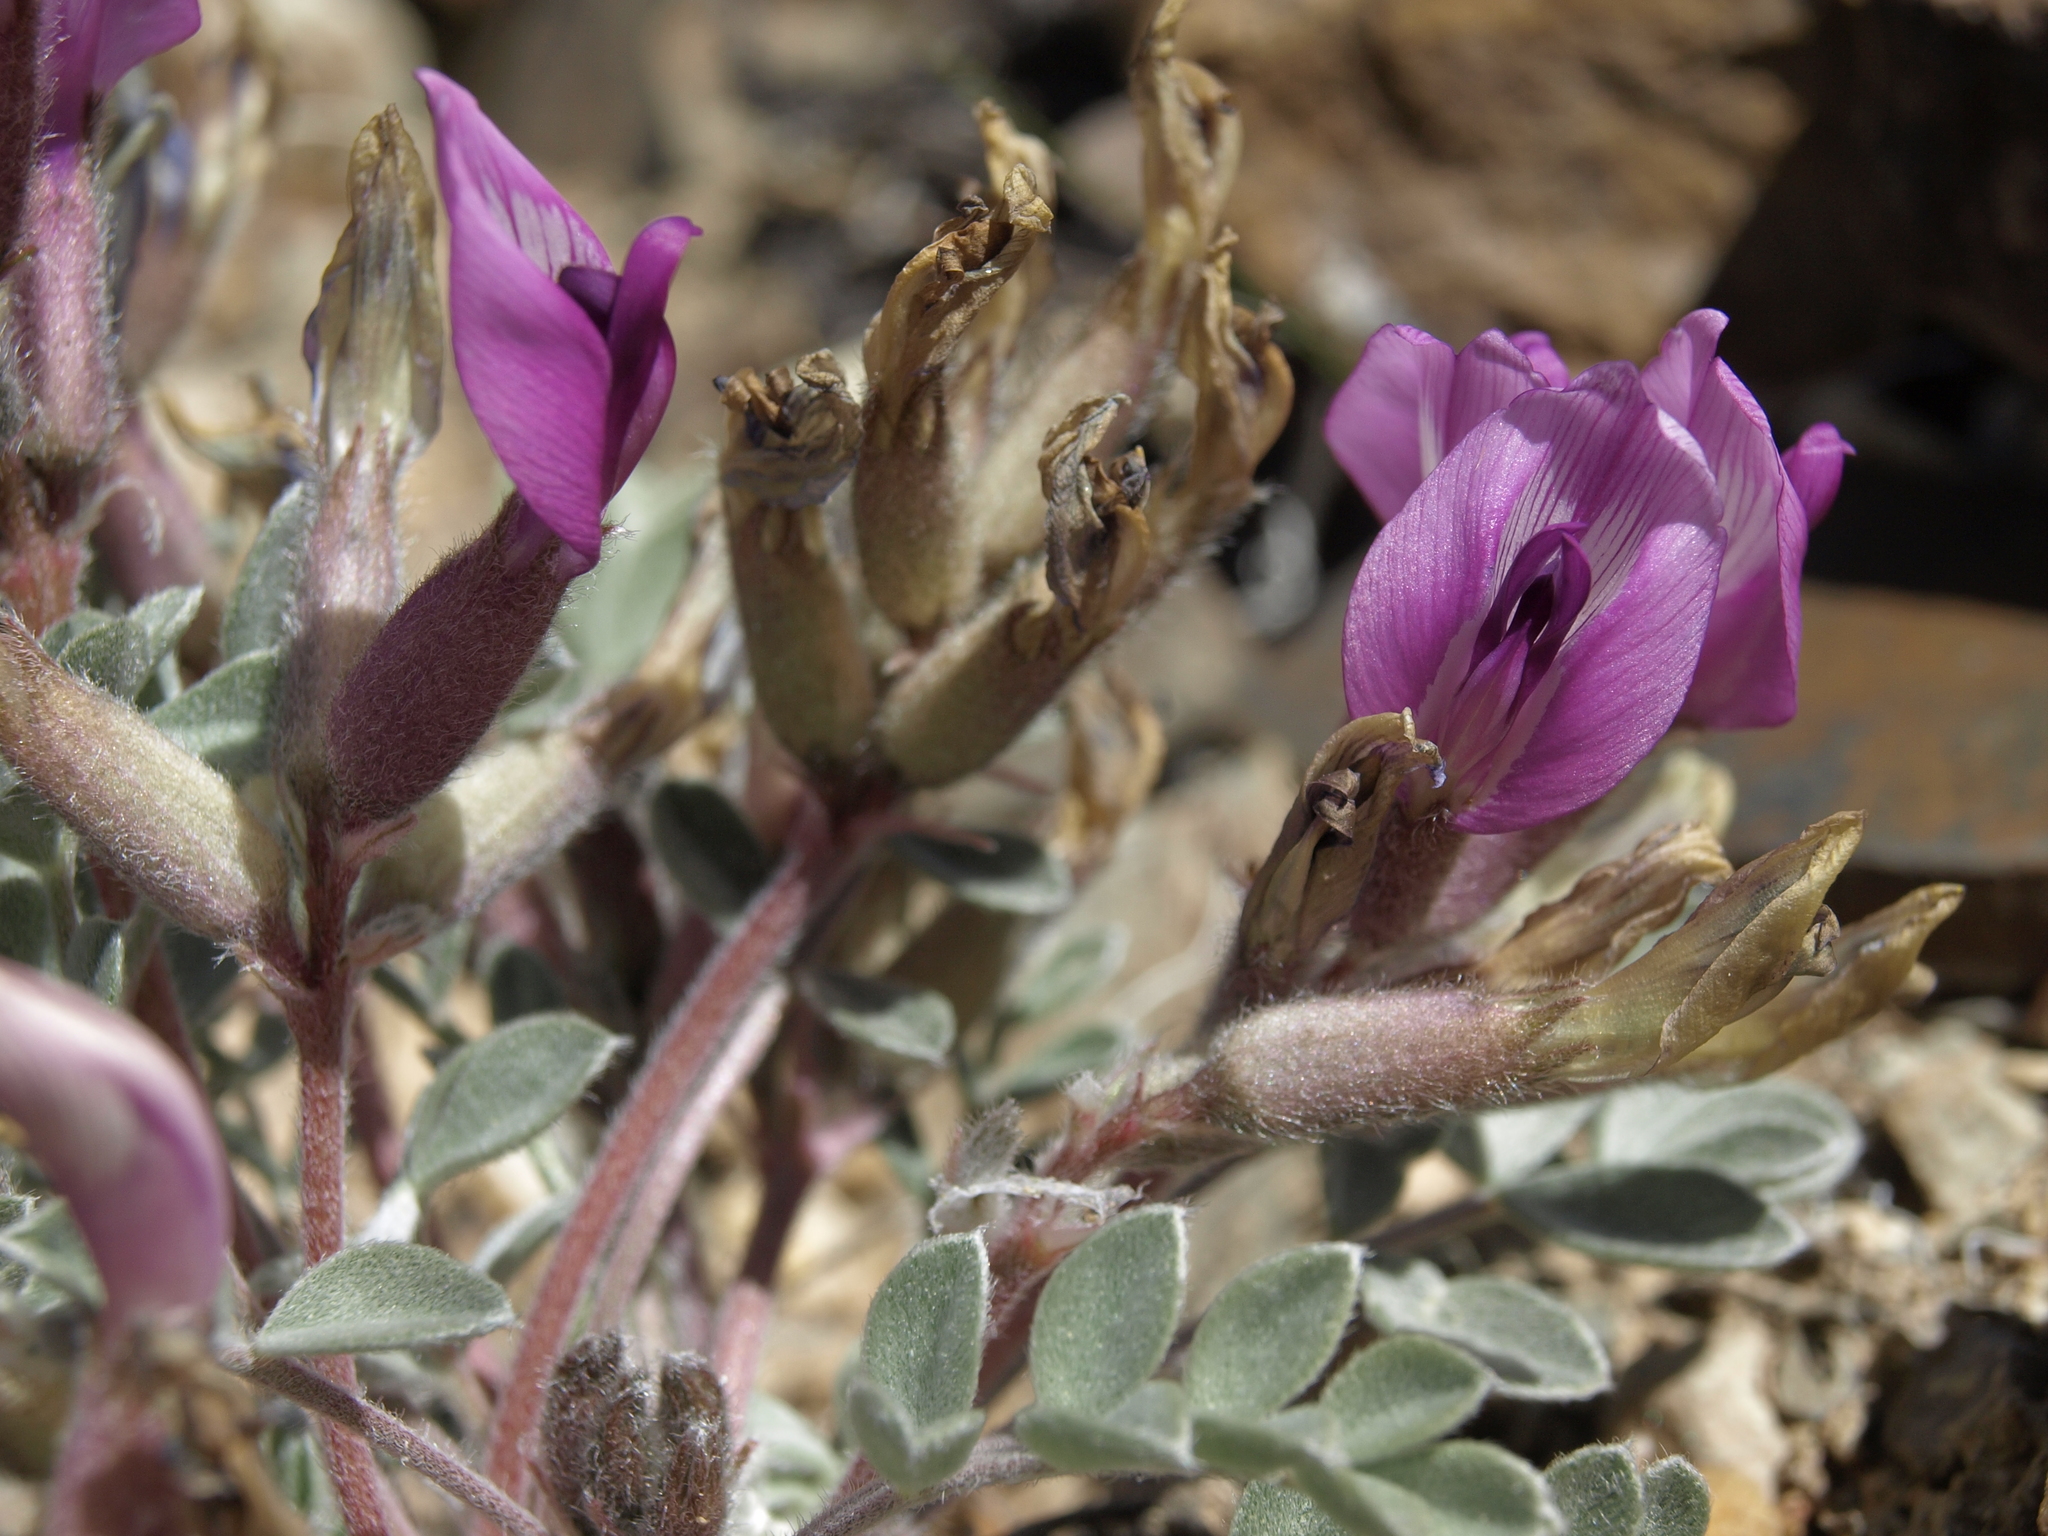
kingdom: Plantae
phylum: Tracheophyta
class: Magnoliopsida
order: Fabales
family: Fabaceae
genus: Astragalus
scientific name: Astragalus newberryi
